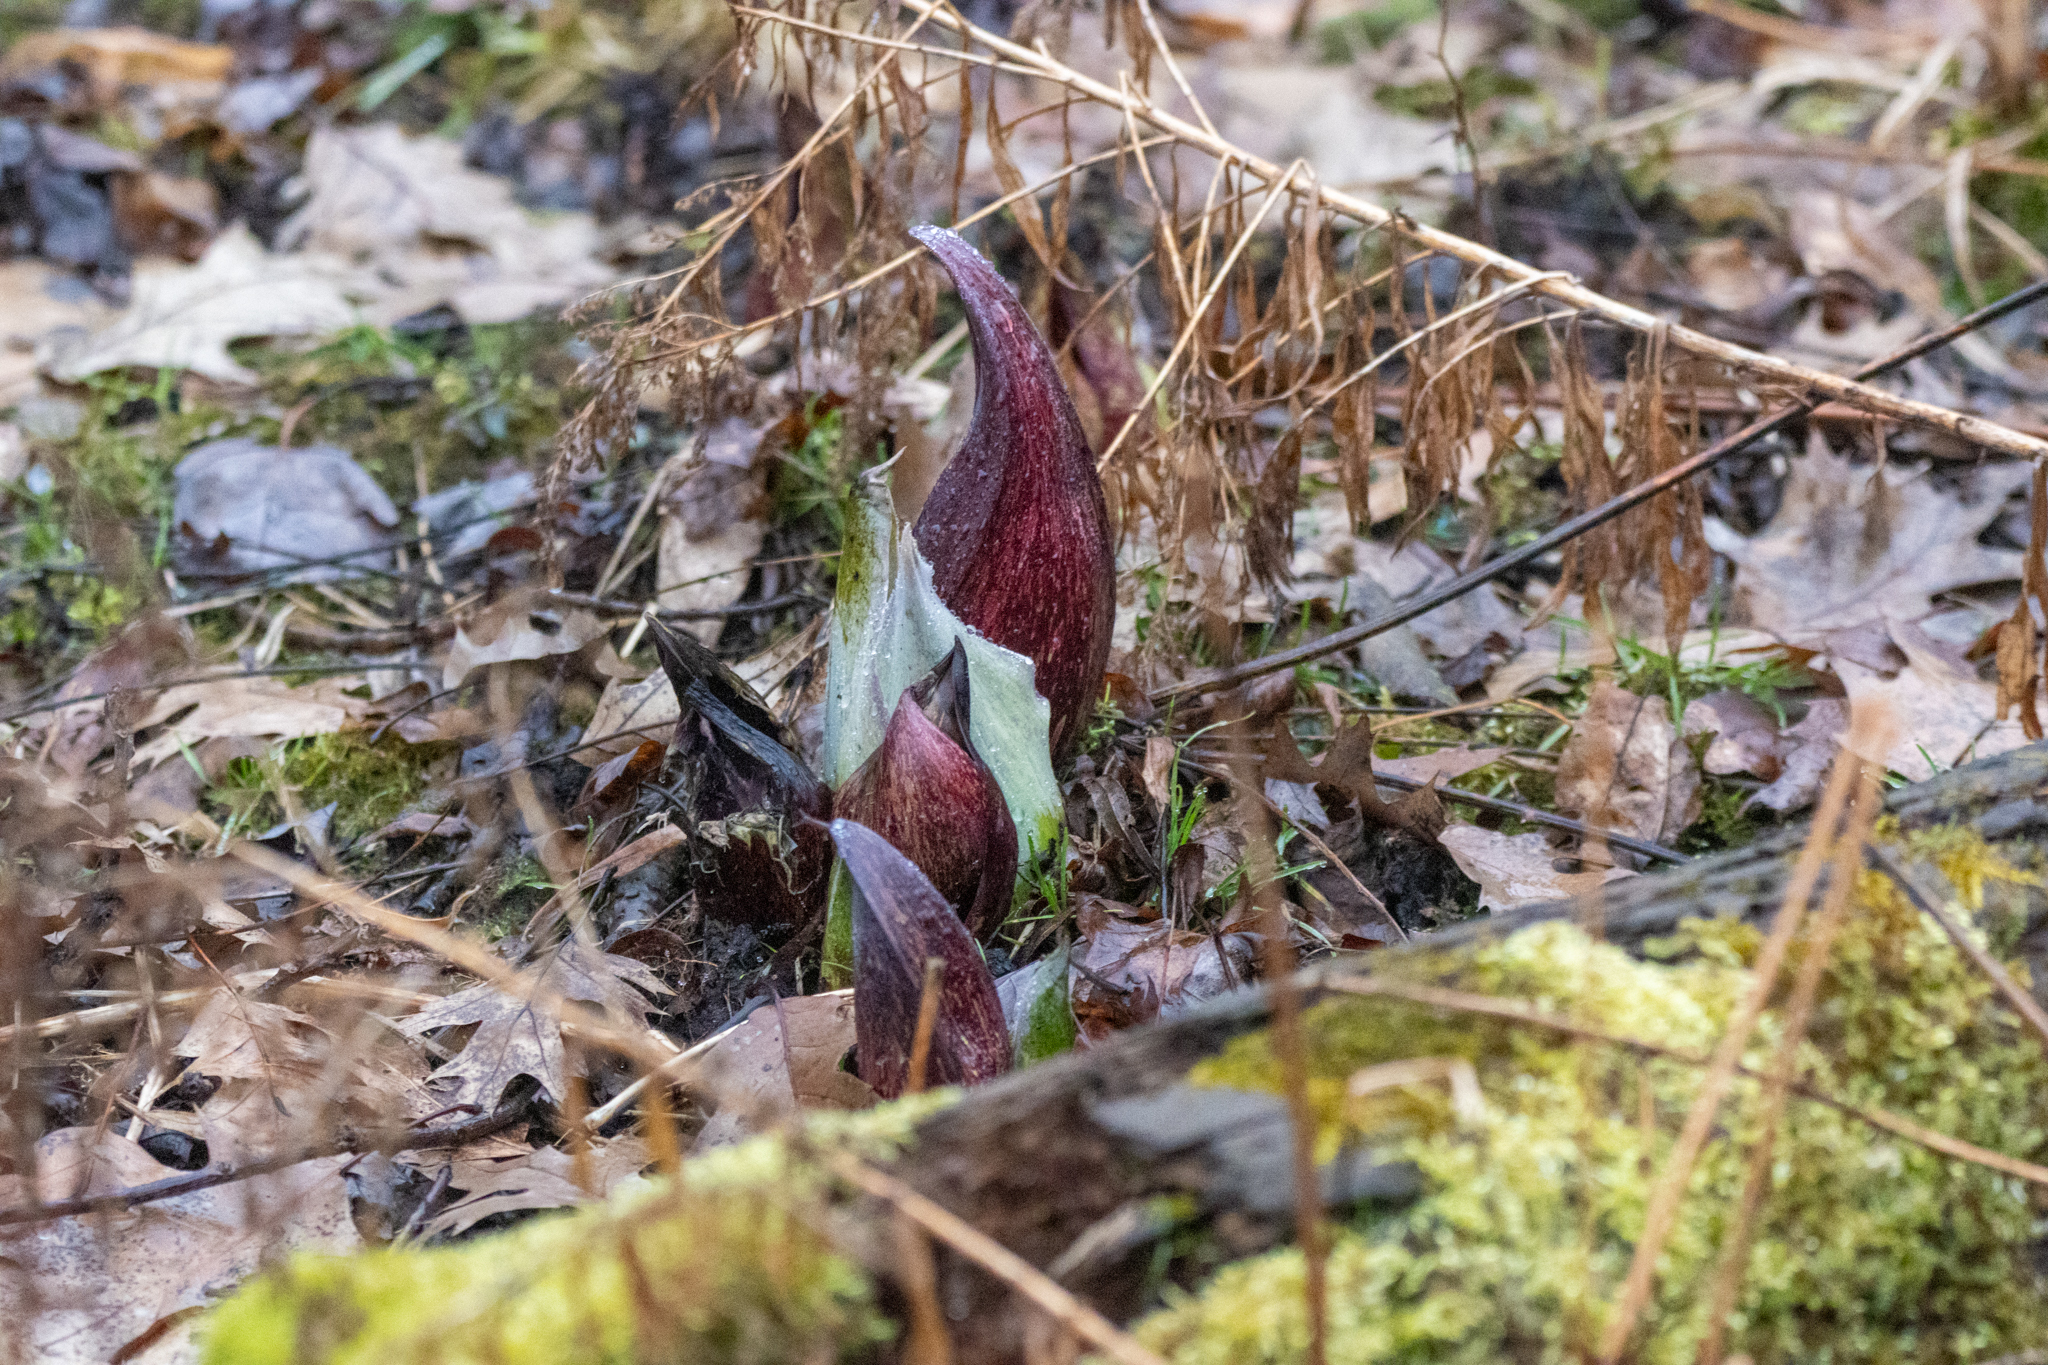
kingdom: Plantae
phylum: Tracheophyta
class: Liliopsida
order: Alismatales
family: Araceae
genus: Symplocarpus
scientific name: Symplocarpus foetidus
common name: Eastern skunk cabbage
